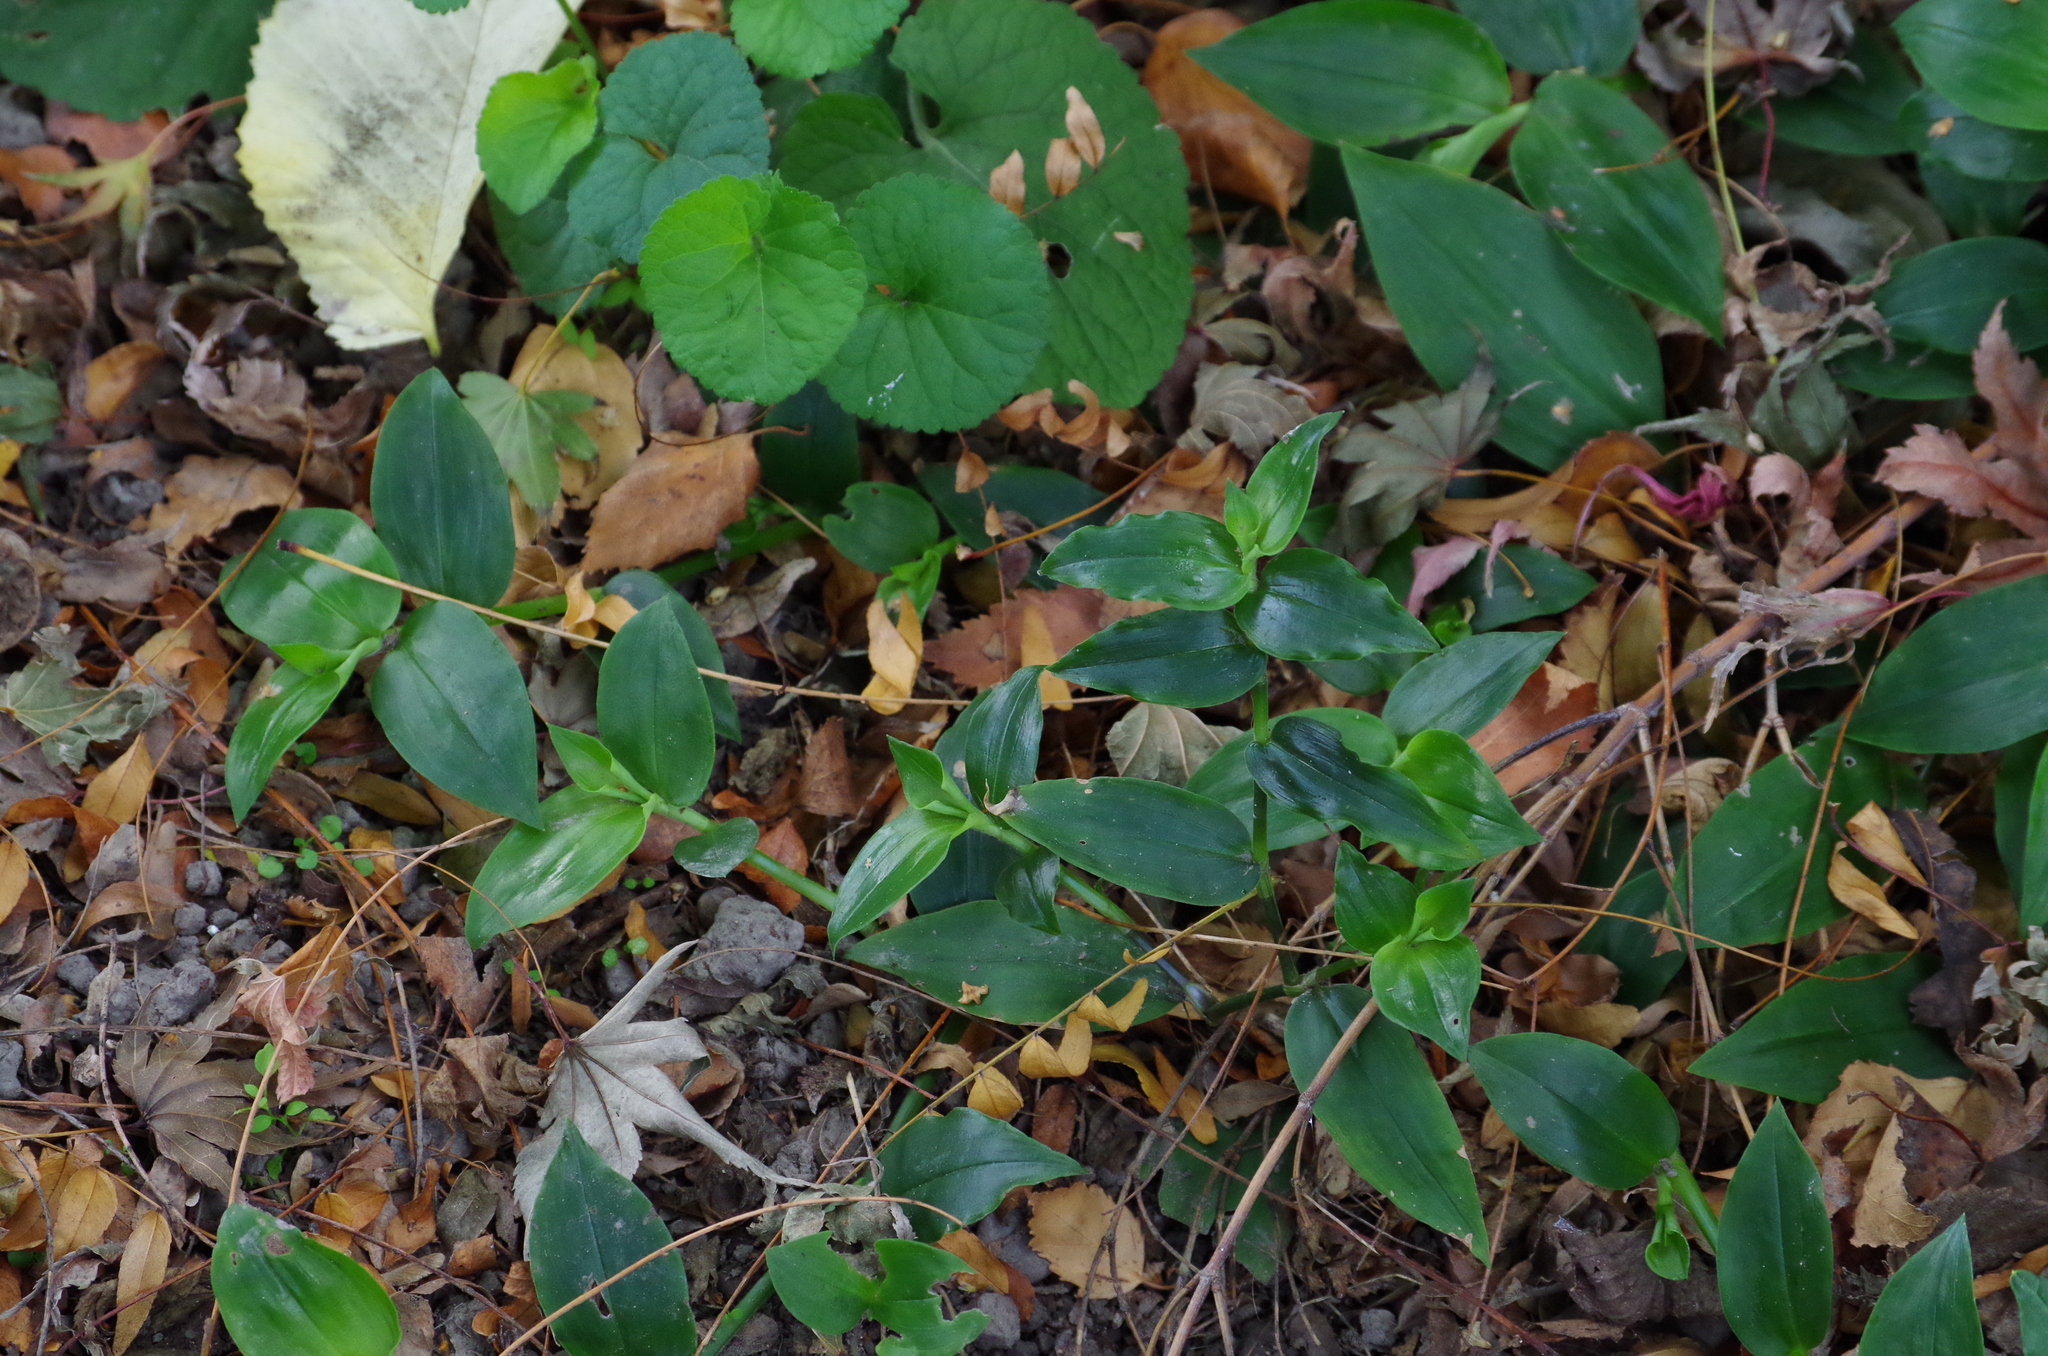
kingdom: Plantae
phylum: Tracheophyta
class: Liliopsida
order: Commelinales
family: Commelinaceae
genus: Tradescantia
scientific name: Tradescantia fluminensis
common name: Wandering-jew
